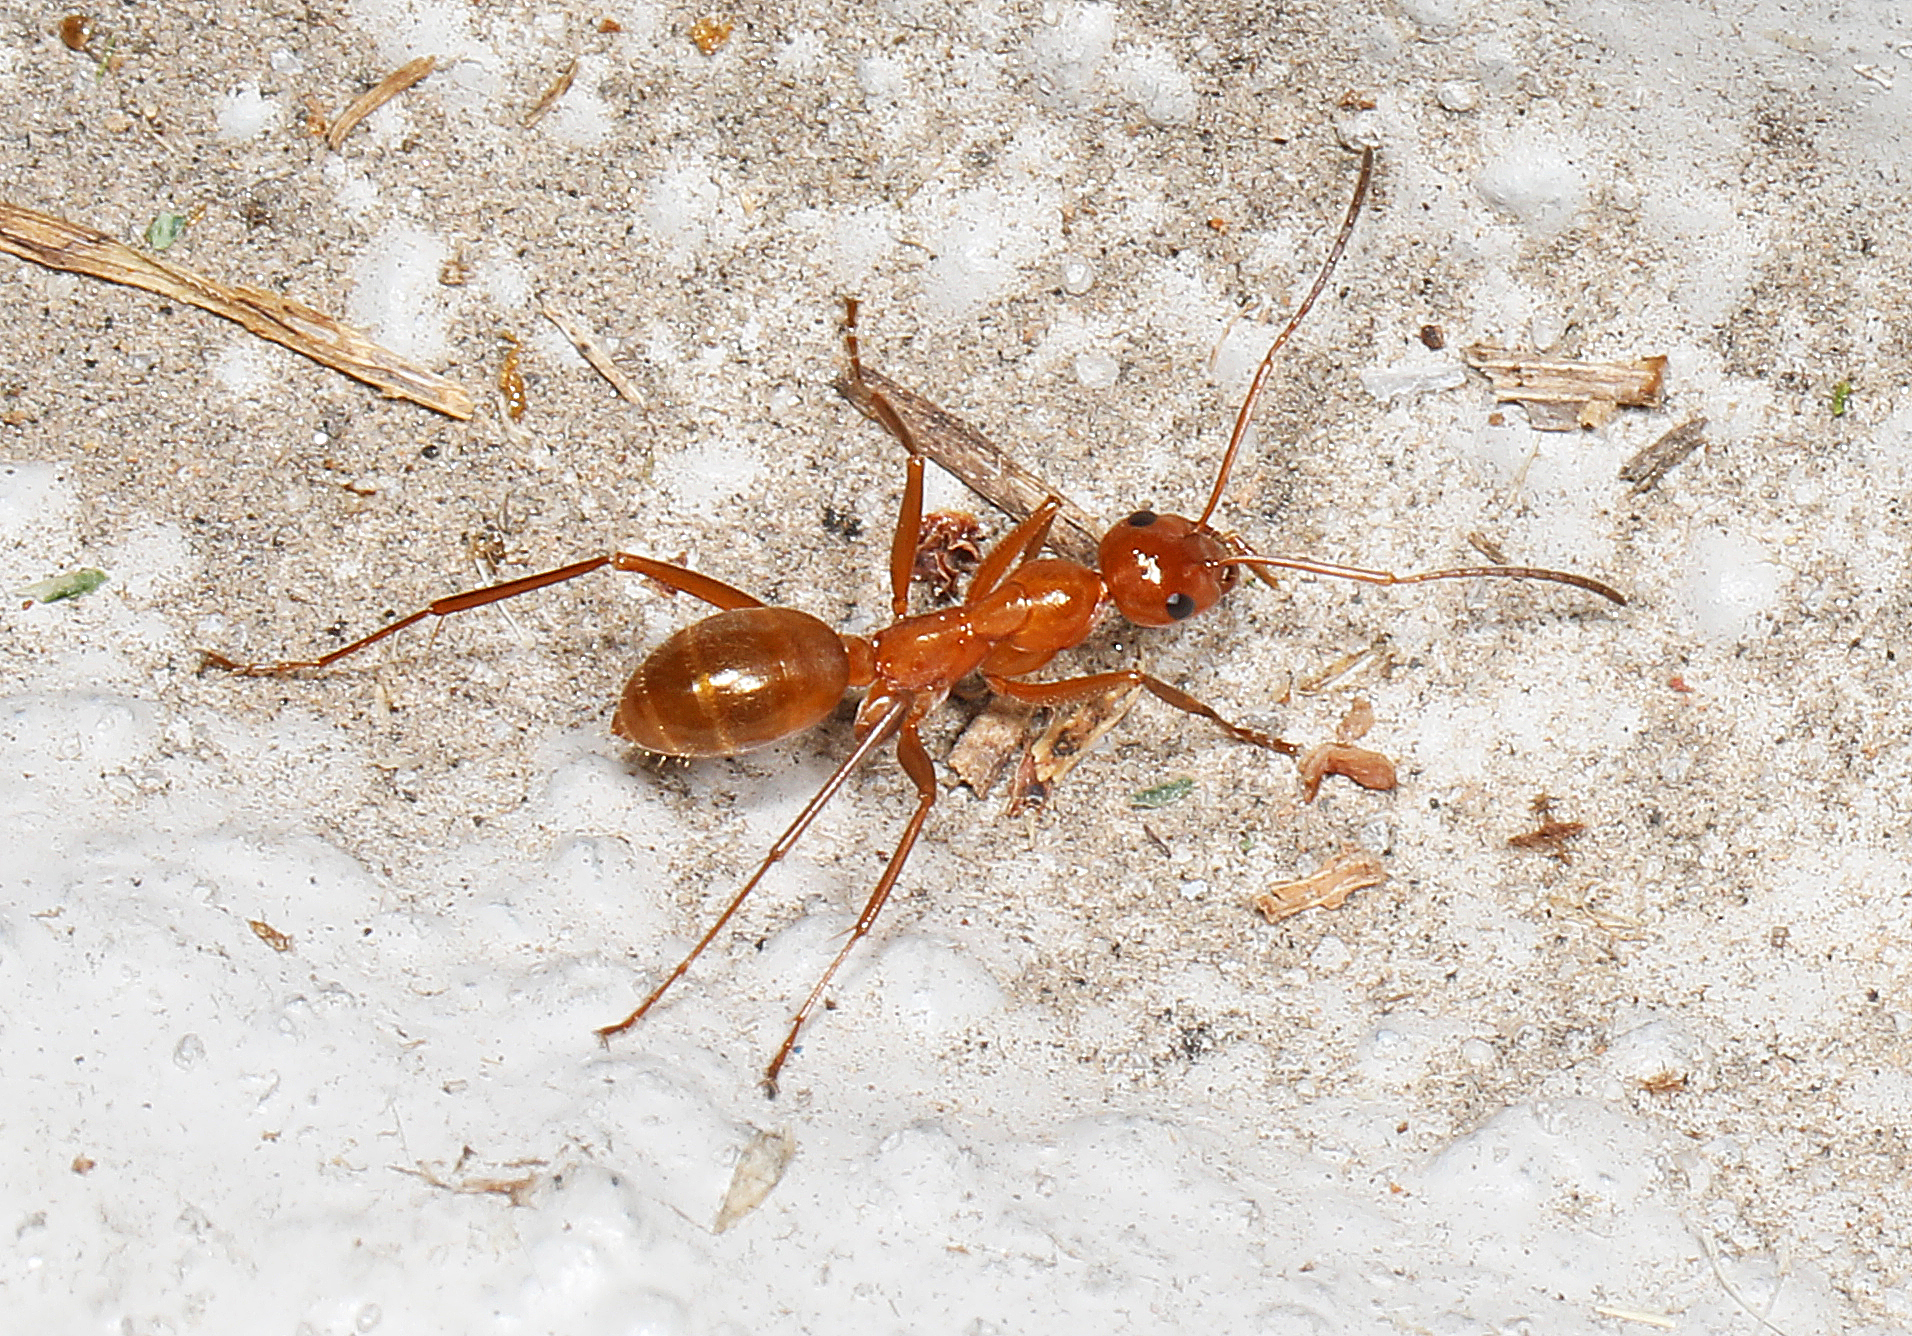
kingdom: Animalia
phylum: Arthropoda
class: Insecta
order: Hymenoptera
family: Formicidae
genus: Formica
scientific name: Formica pallidefulva
